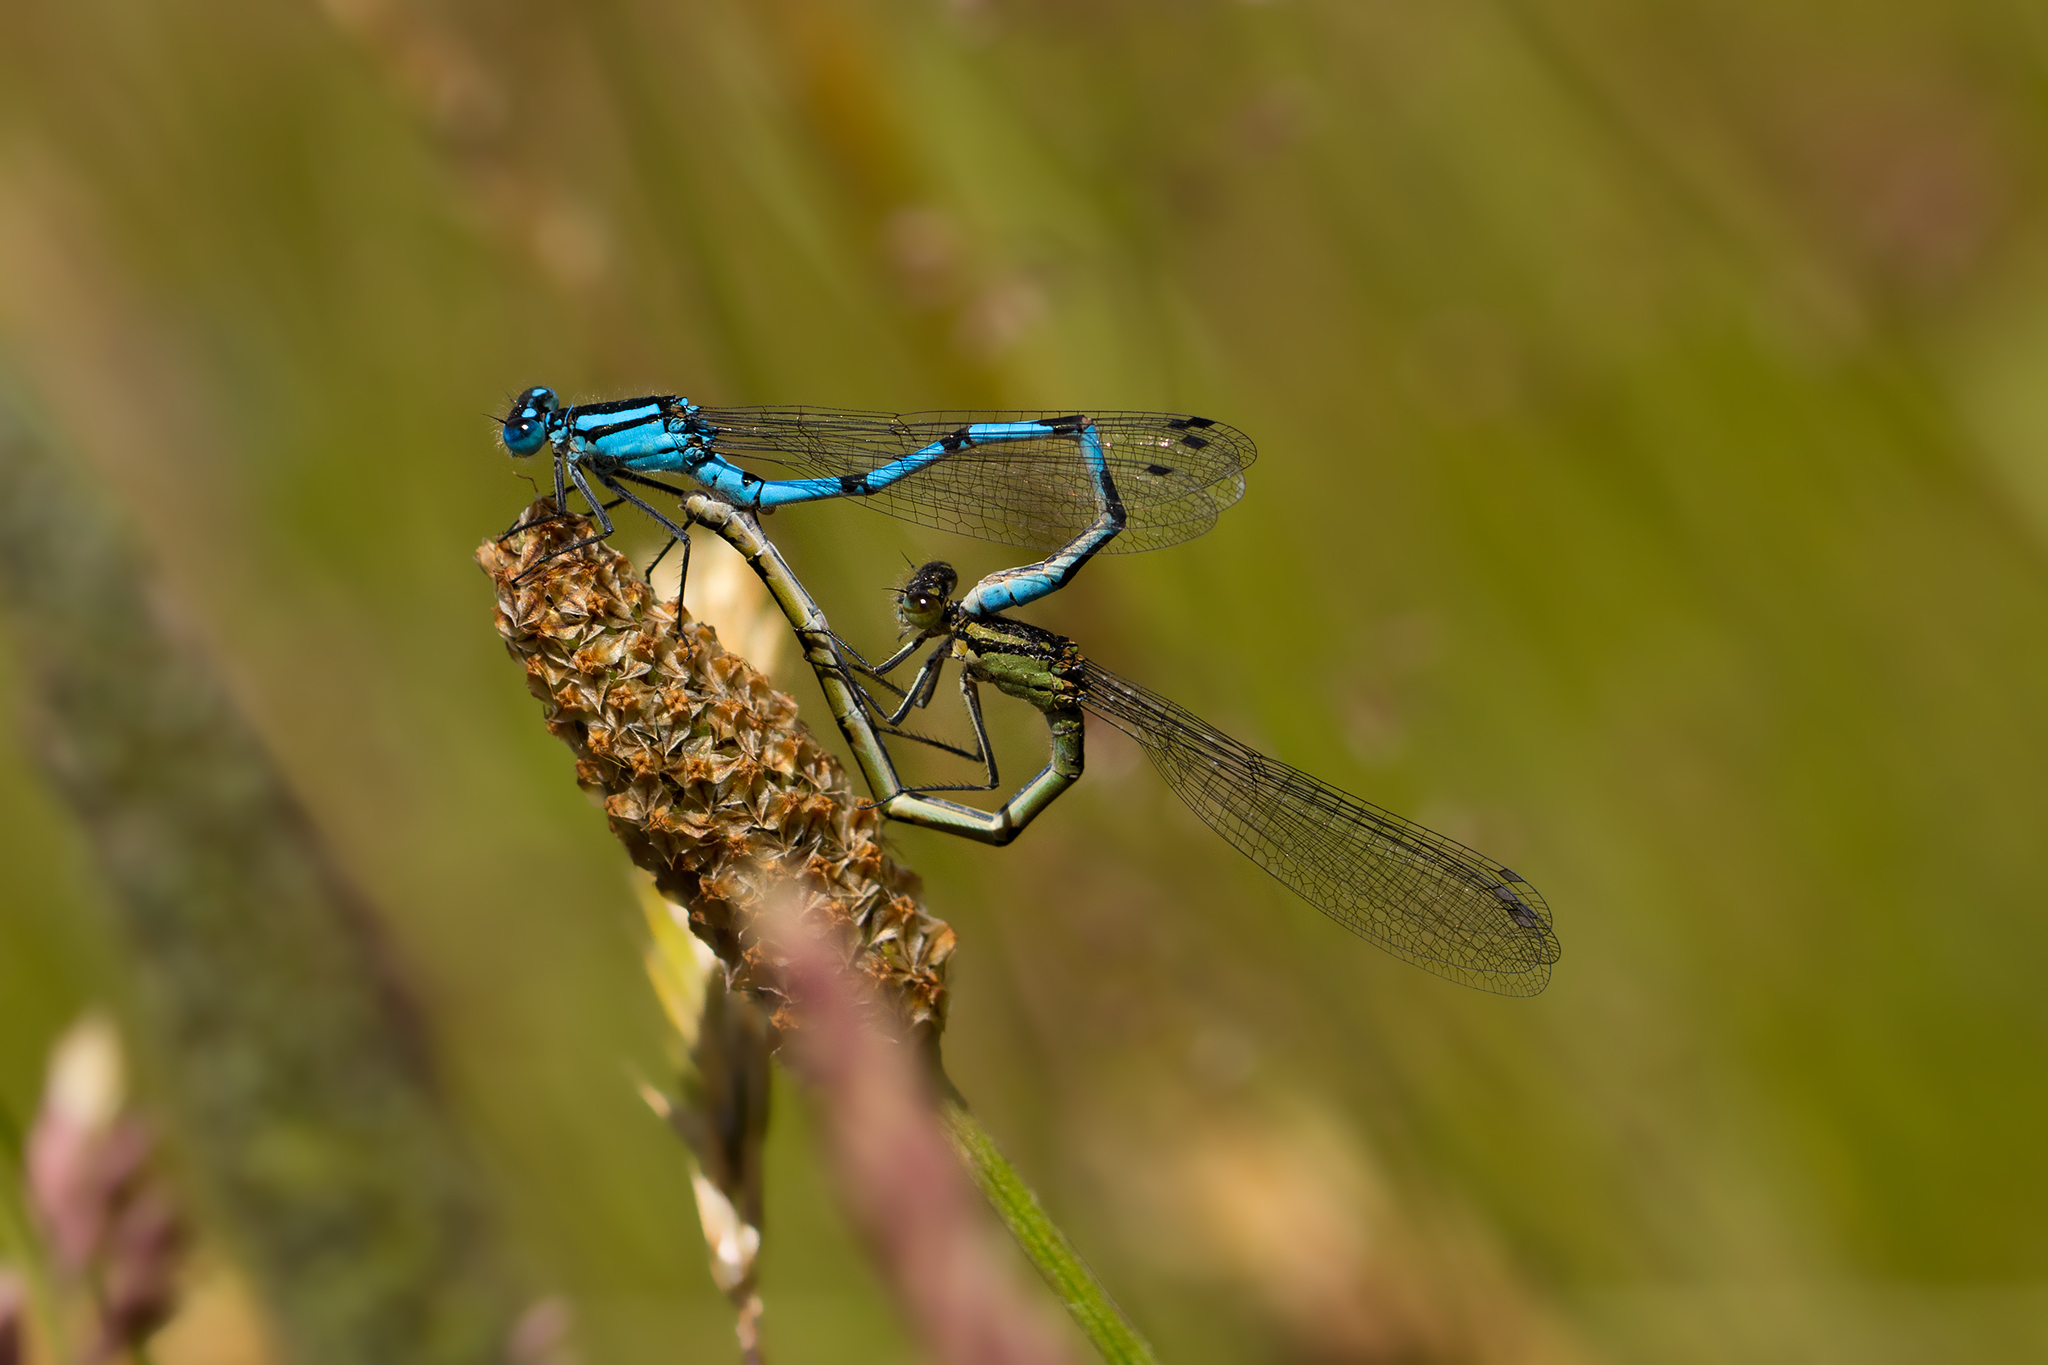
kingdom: Animalia
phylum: Arthropoda
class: Insecta
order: Odonata
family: Coenagrionidae
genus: Enallagma
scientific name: Enallagma cyathigerum
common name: Common blue damselfly
